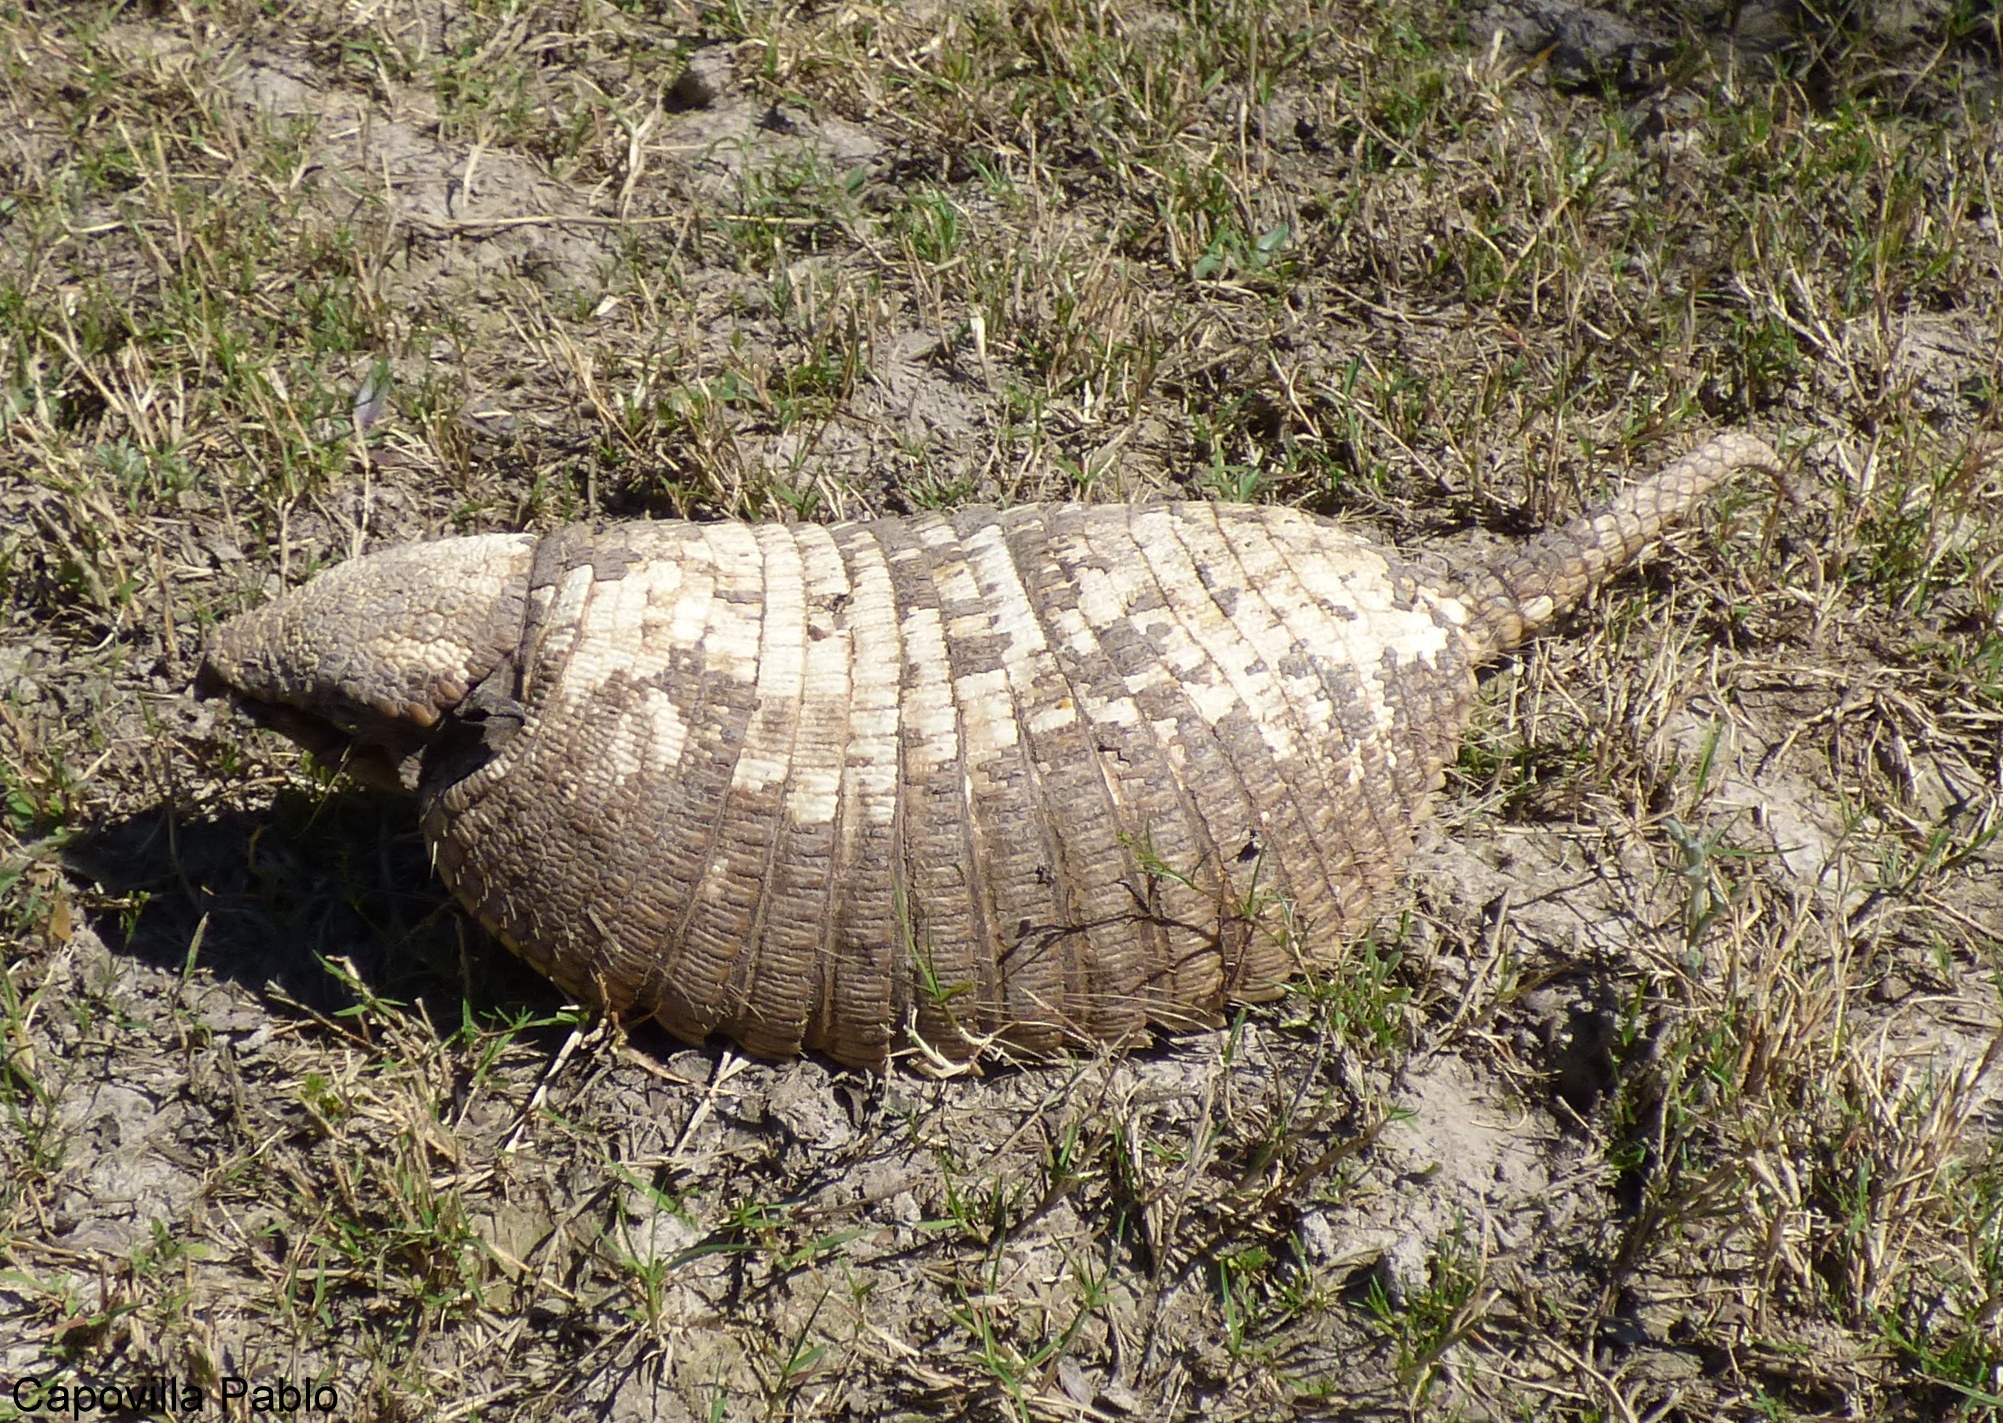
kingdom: Animalia
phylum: Chordata
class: Mammalia
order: Cingulata
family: Dasypodidae
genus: Chaetophractus
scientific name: Chaetophractus villosus
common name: Big hairy armadillo
